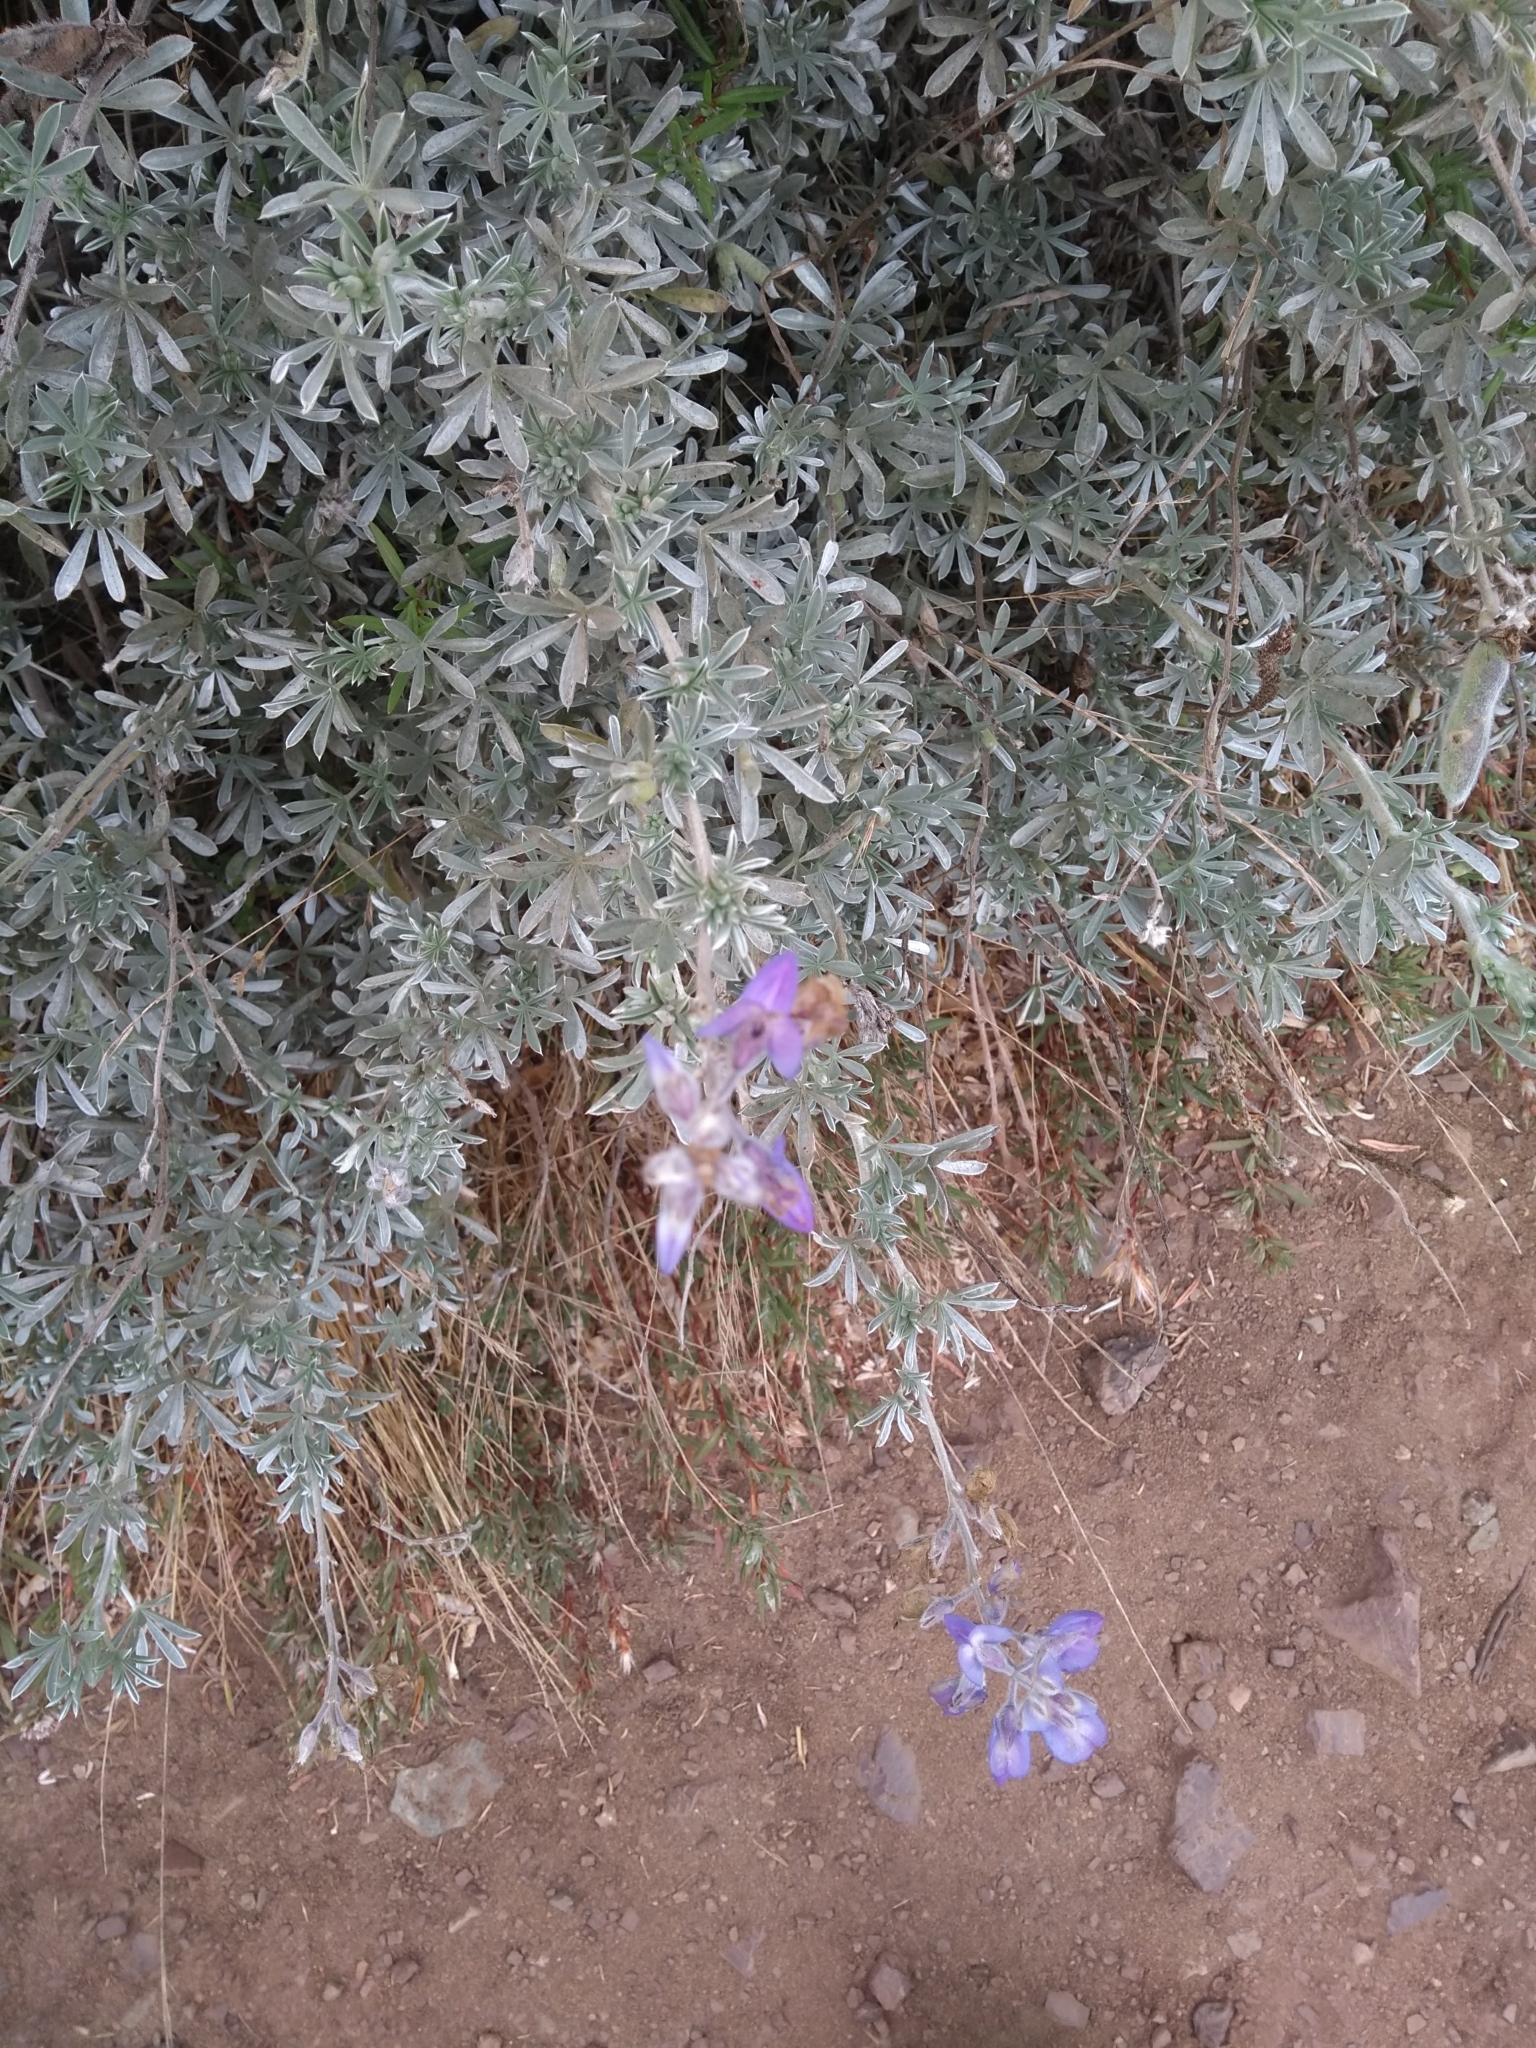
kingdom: Plantae
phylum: Tracheophyta
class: Magnoliopsida
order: Fabales
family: Fabaceae
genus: Lupinus
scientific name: Lupinus chamissonis
